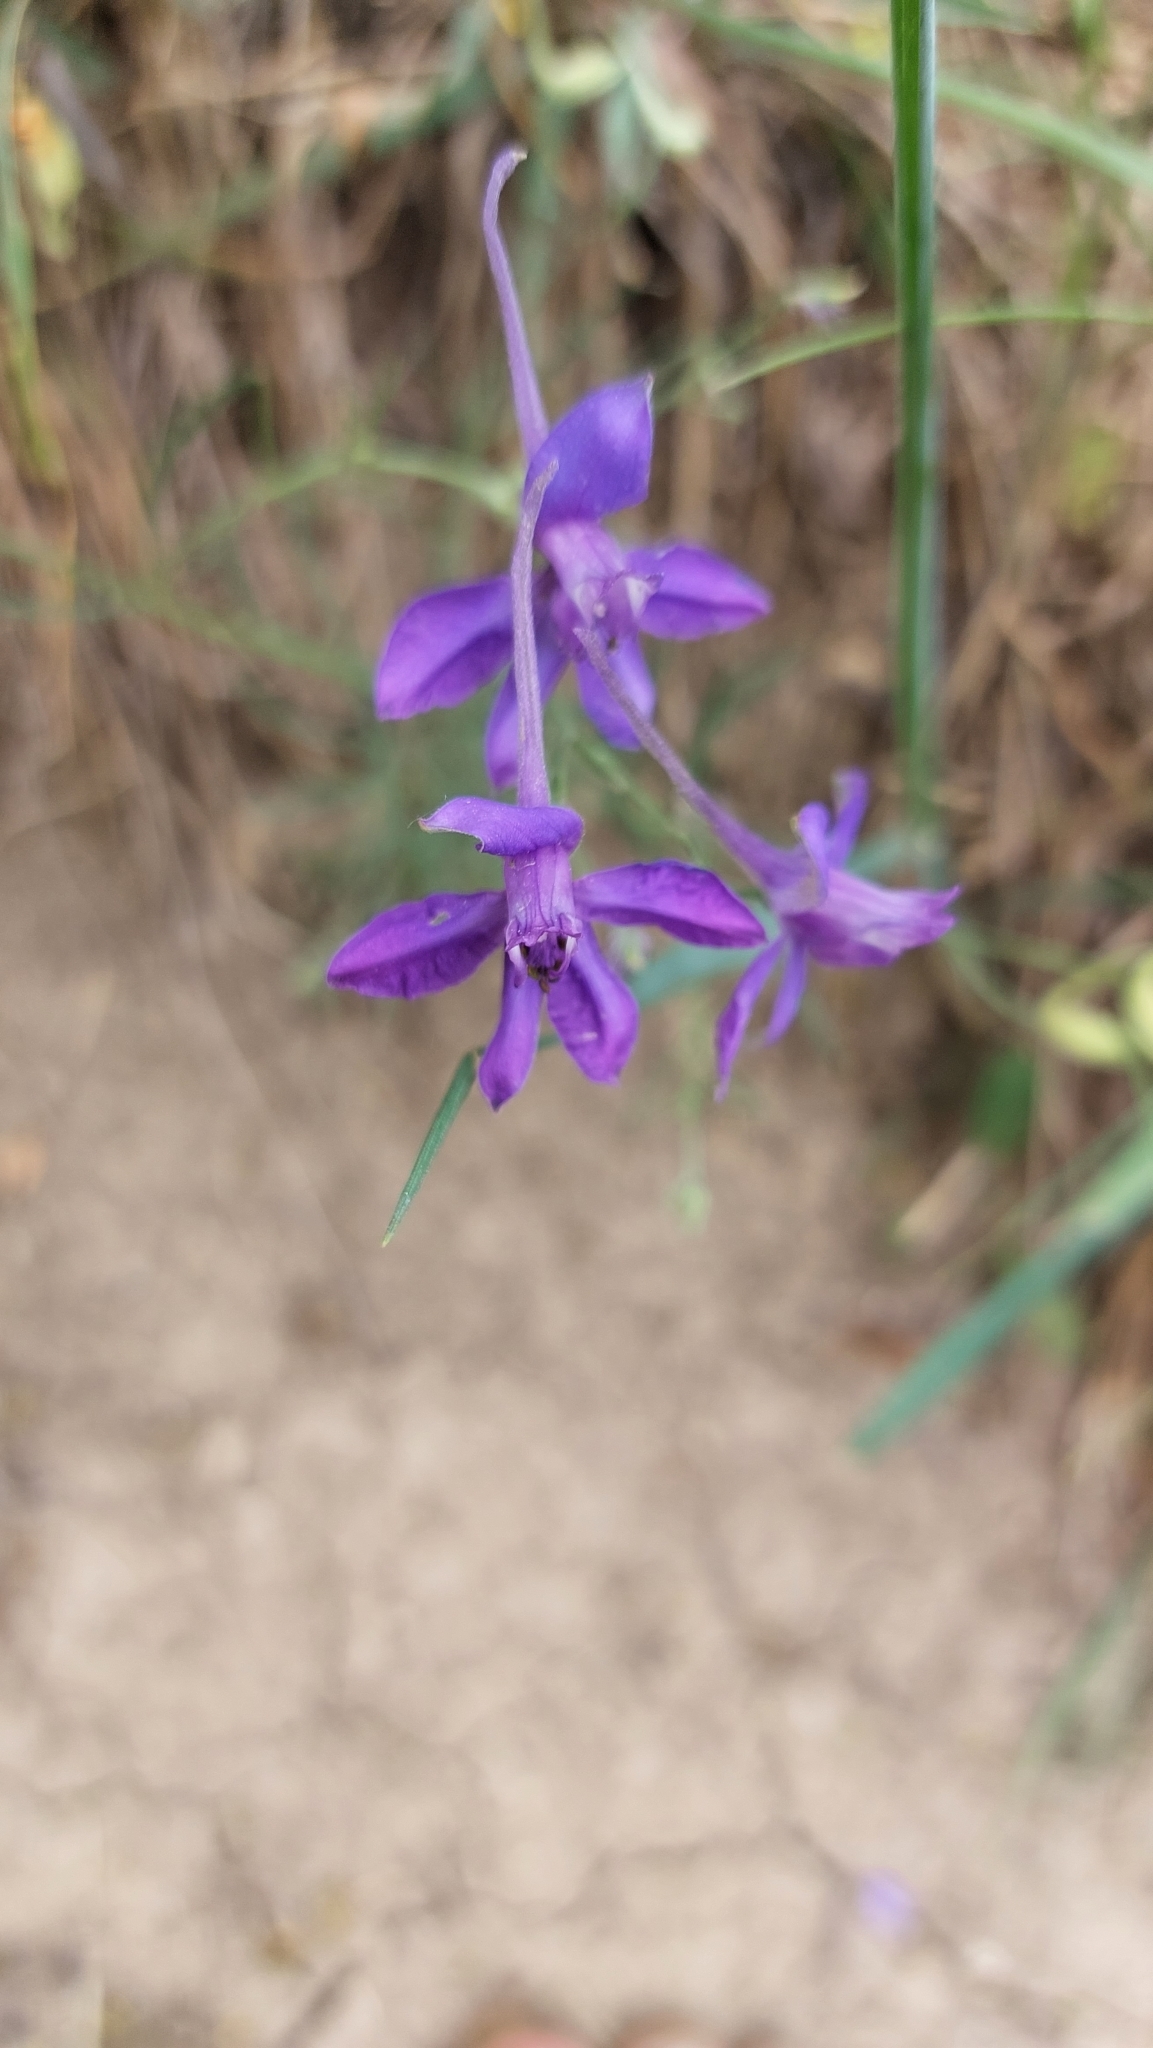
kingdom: Plantae
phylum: Tracheophyta
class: Magnoliopsida
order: Ranunculales
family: Ranunculaceae
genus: Delphinium
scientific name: Delphinium consolida
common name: Branching larkspur
